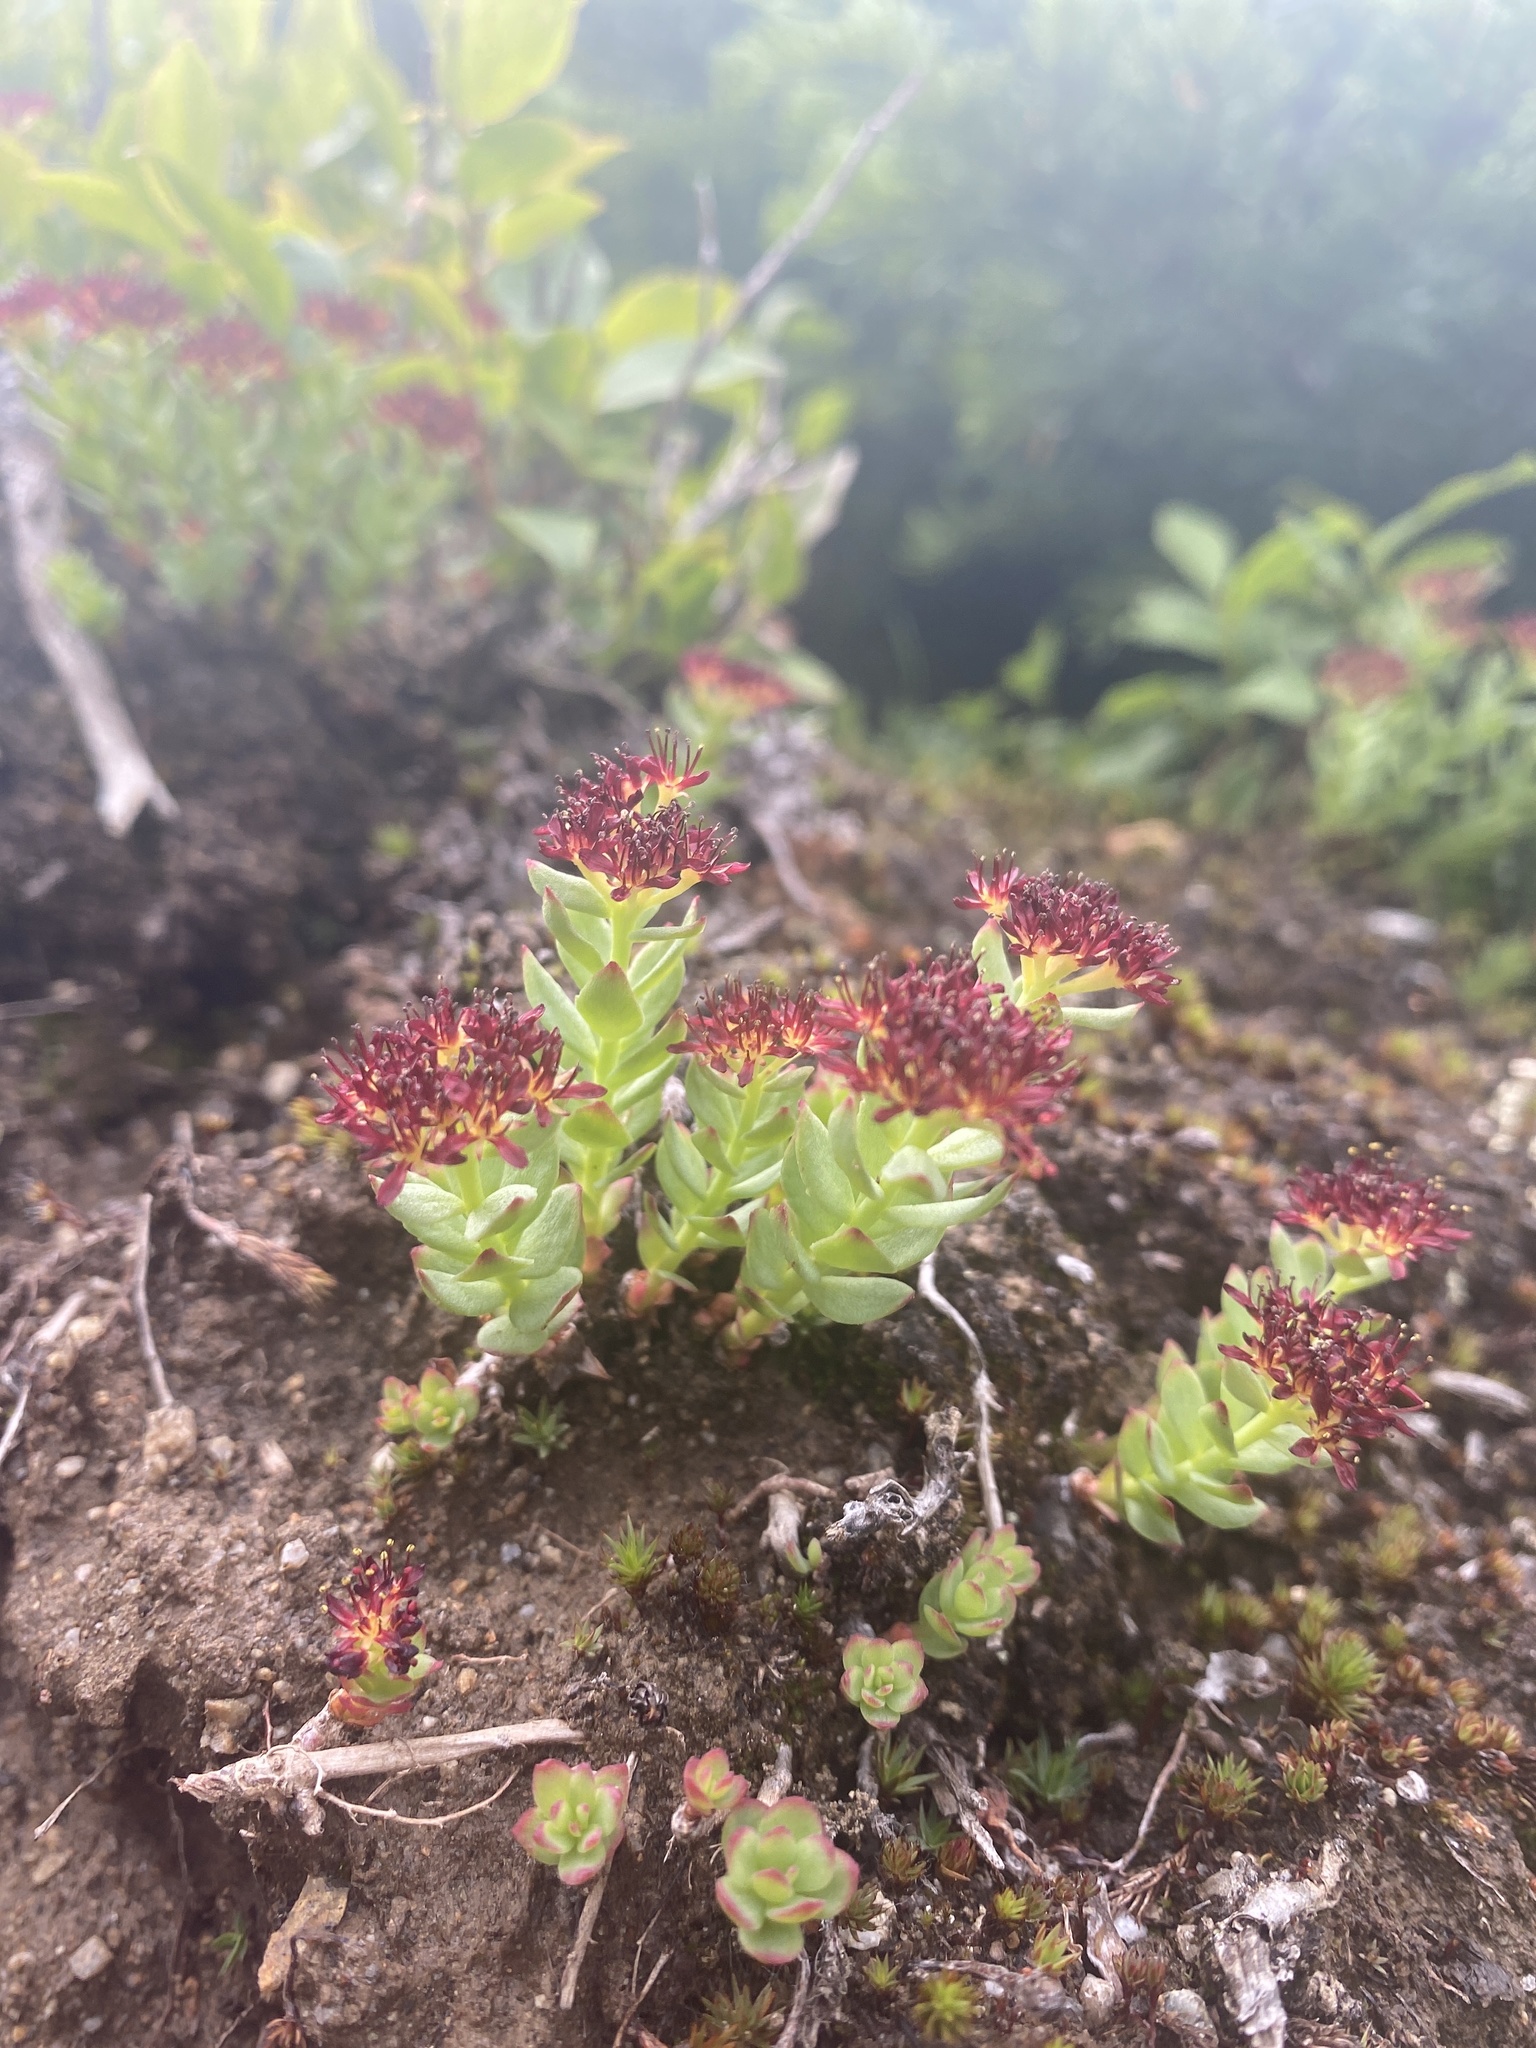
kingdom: Plantae
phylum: Tracheophyta
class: Magnoliopsida
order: Saxifragales
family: Crassulaceae
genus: Rhodiola
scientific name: Rhodiola integrifolia
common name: Western roseroot
